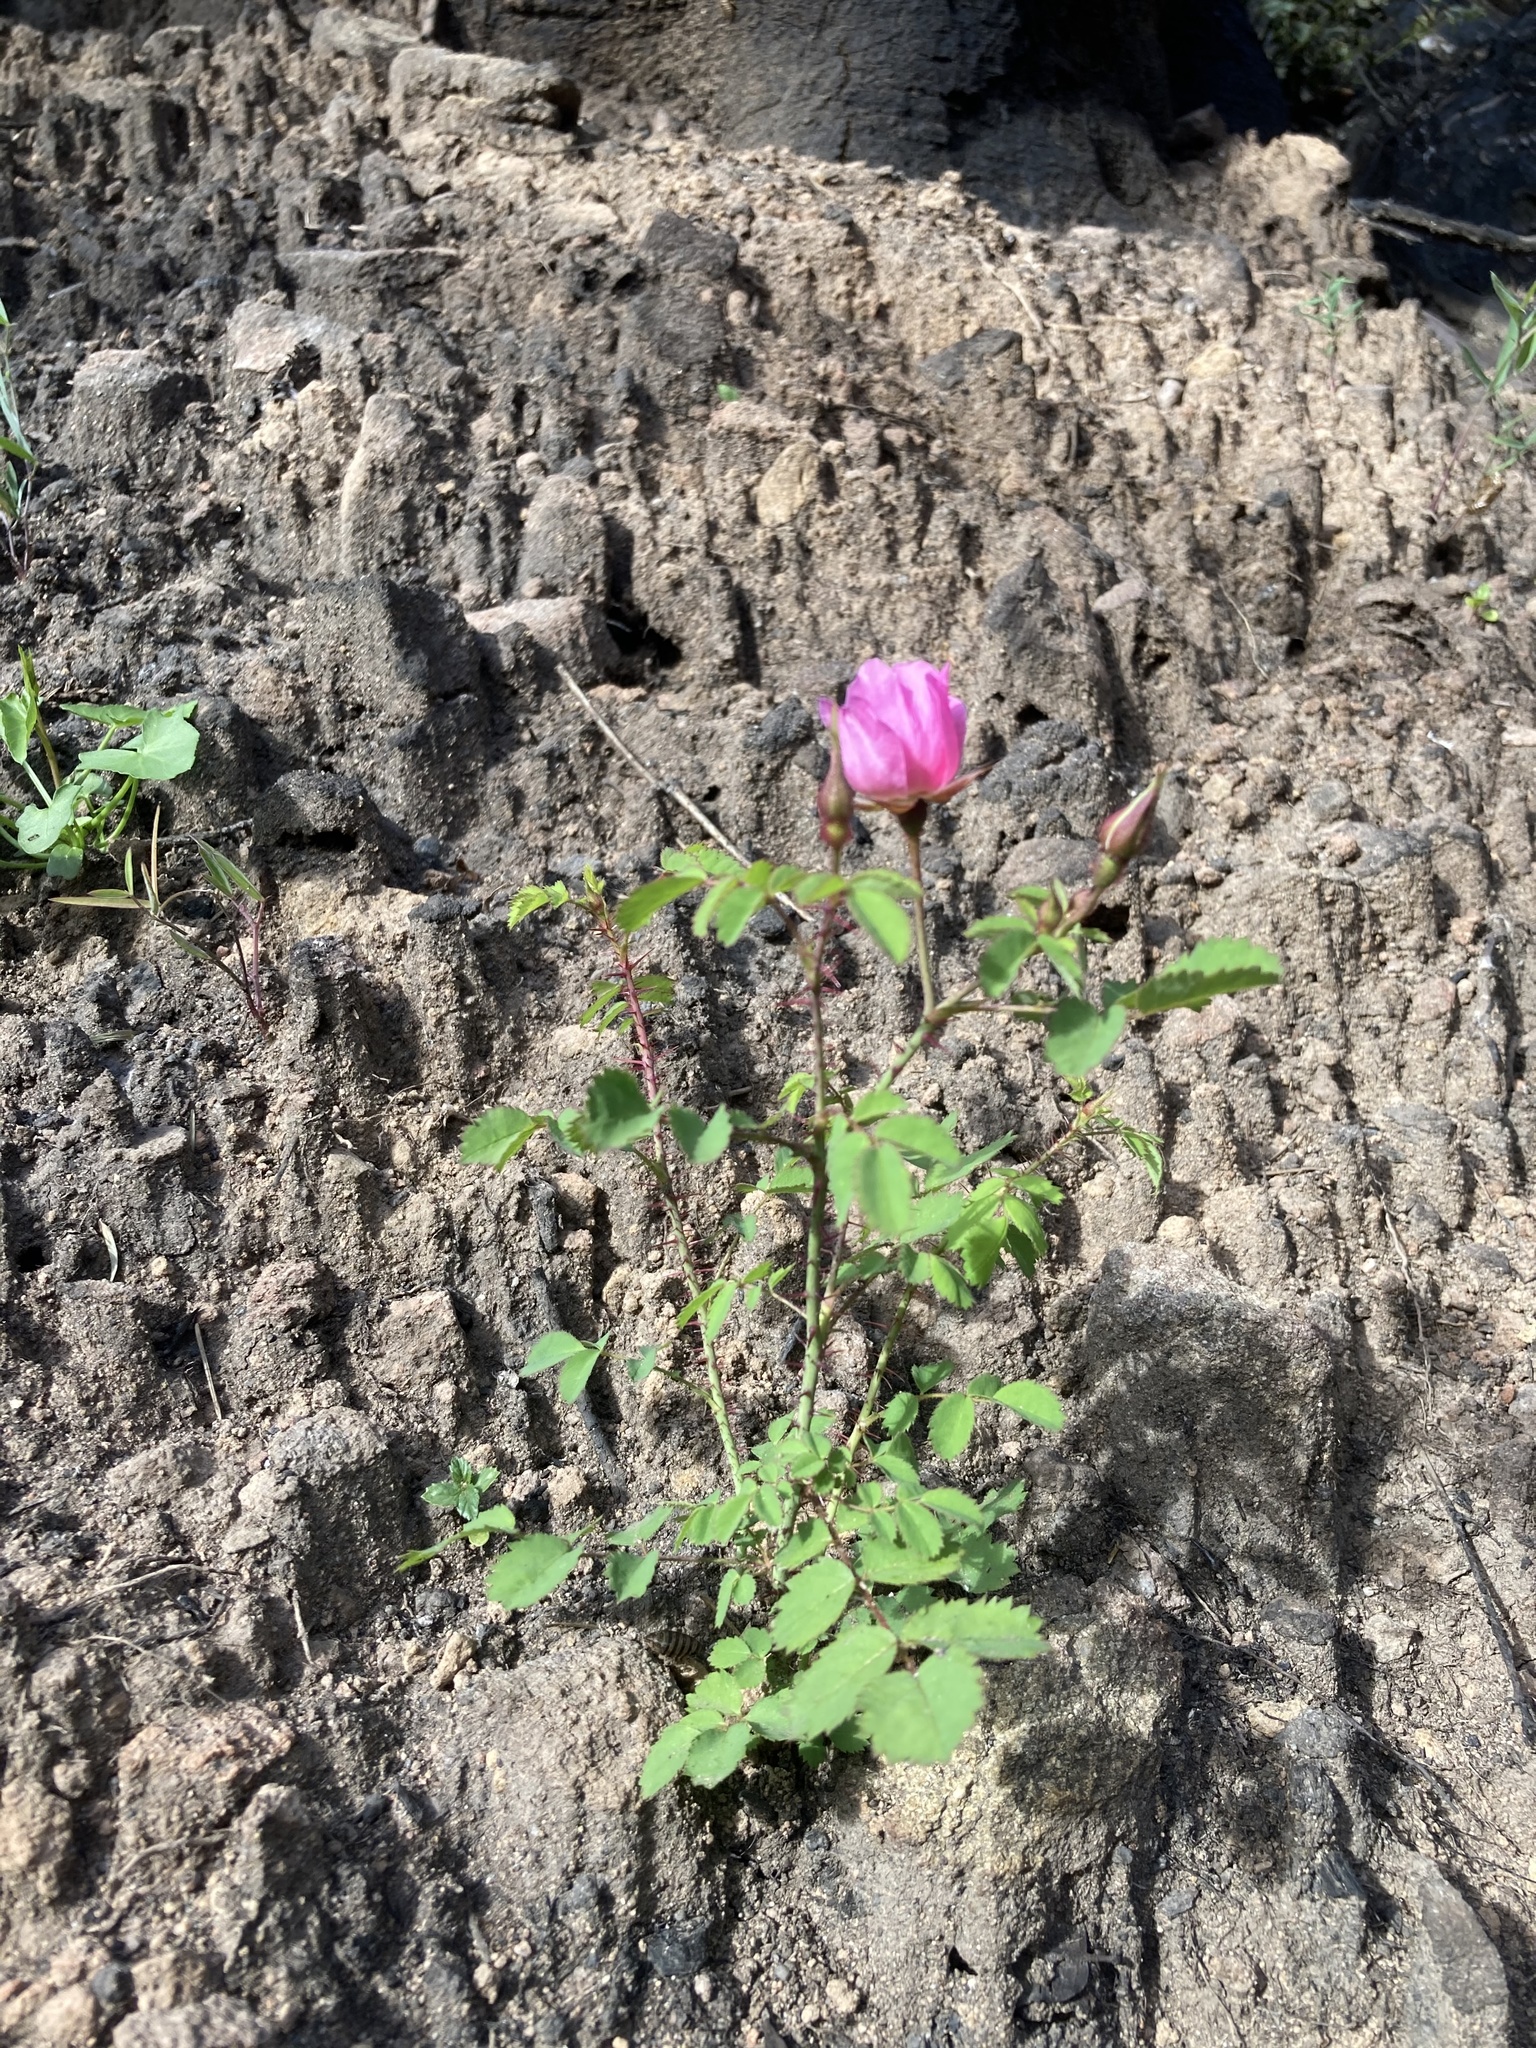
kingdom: Plantae
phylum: Tracheophyta
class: Magnoliopsida
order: Rosales
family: Rosaceae
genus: Rosa
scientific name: Rosa spithamea
